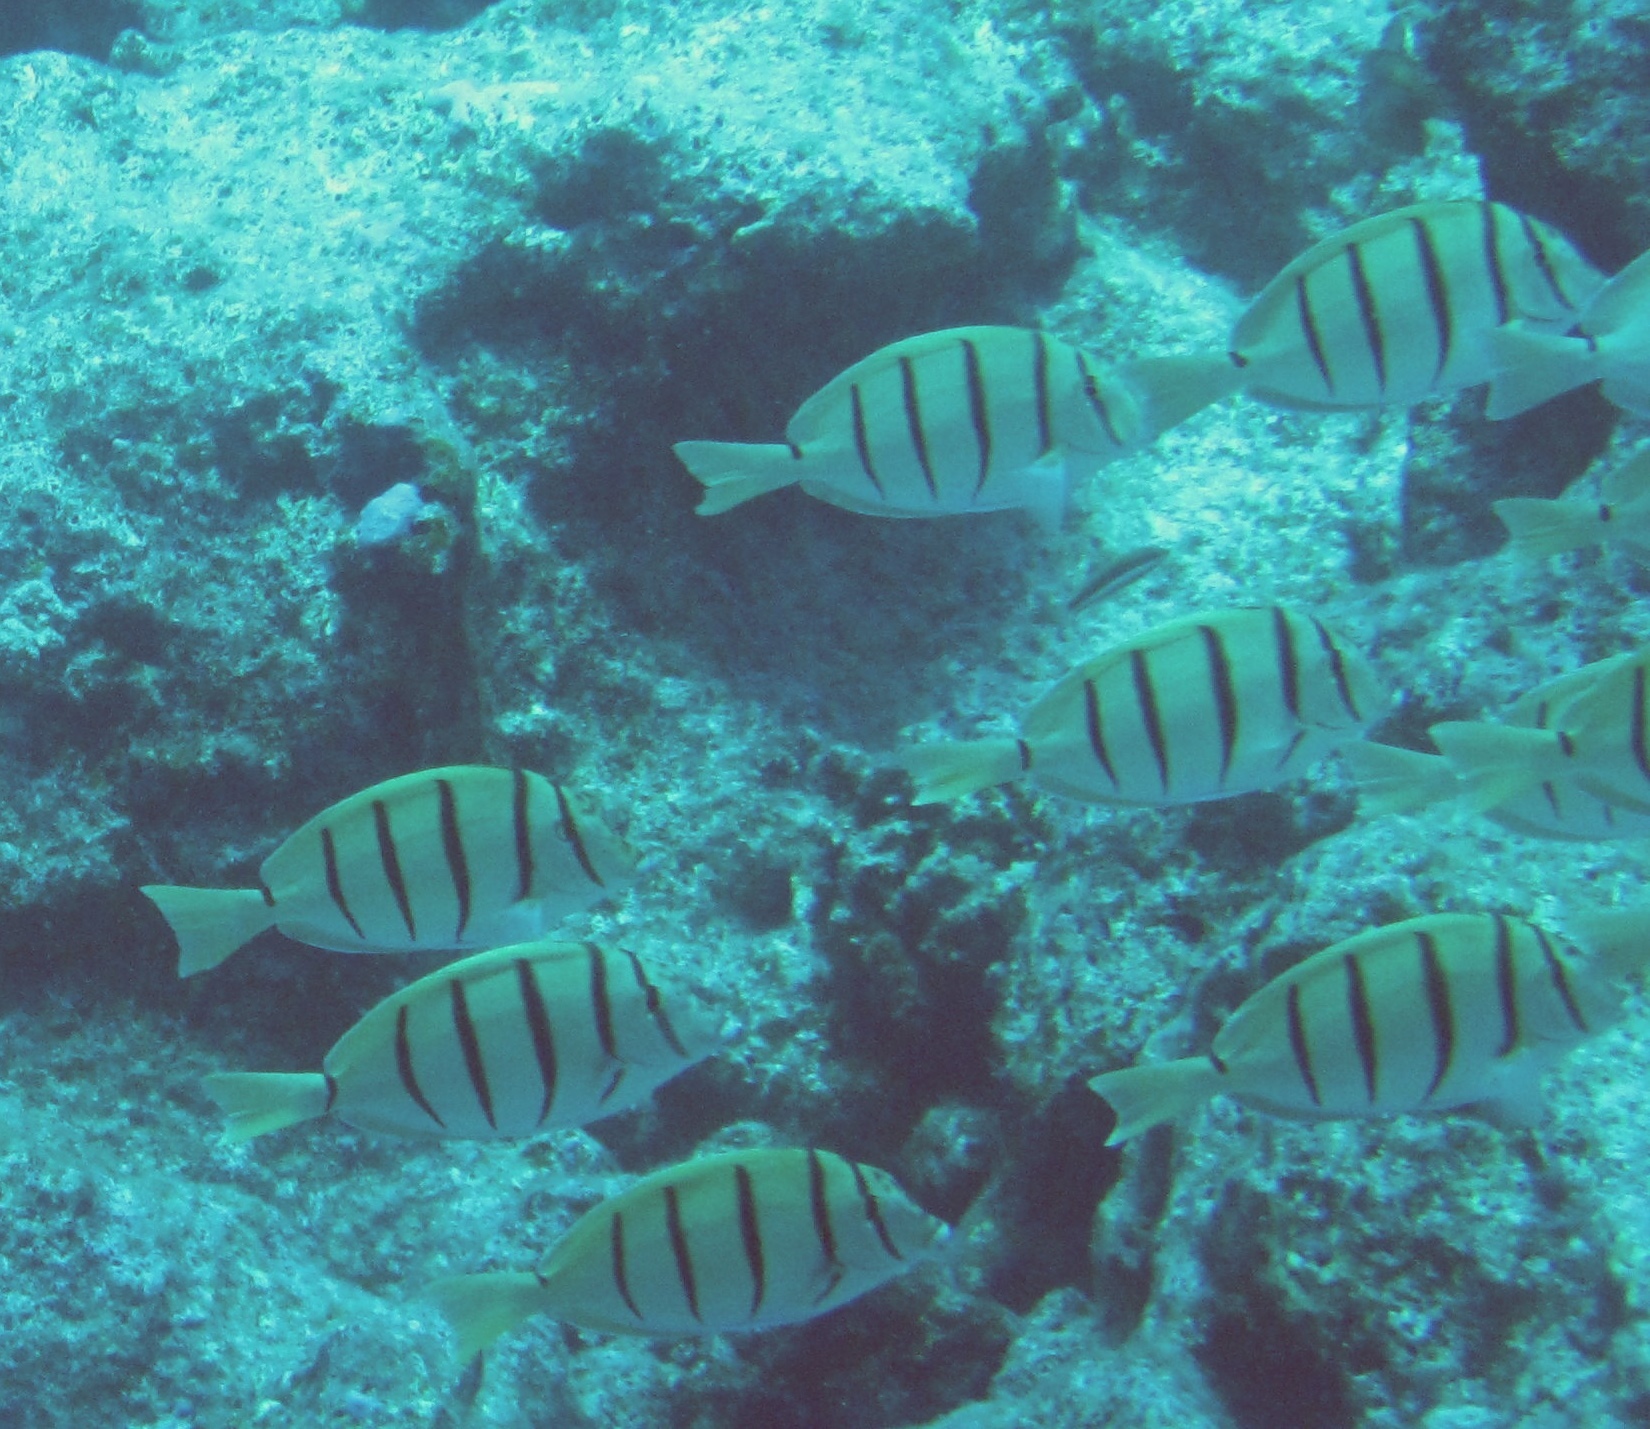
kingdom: Animalia
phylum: Chordata
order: Perciformes
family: Acanthuridae
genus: Acanthurus
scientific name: Acanthurus triostegus
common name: Convict surgeonfish
